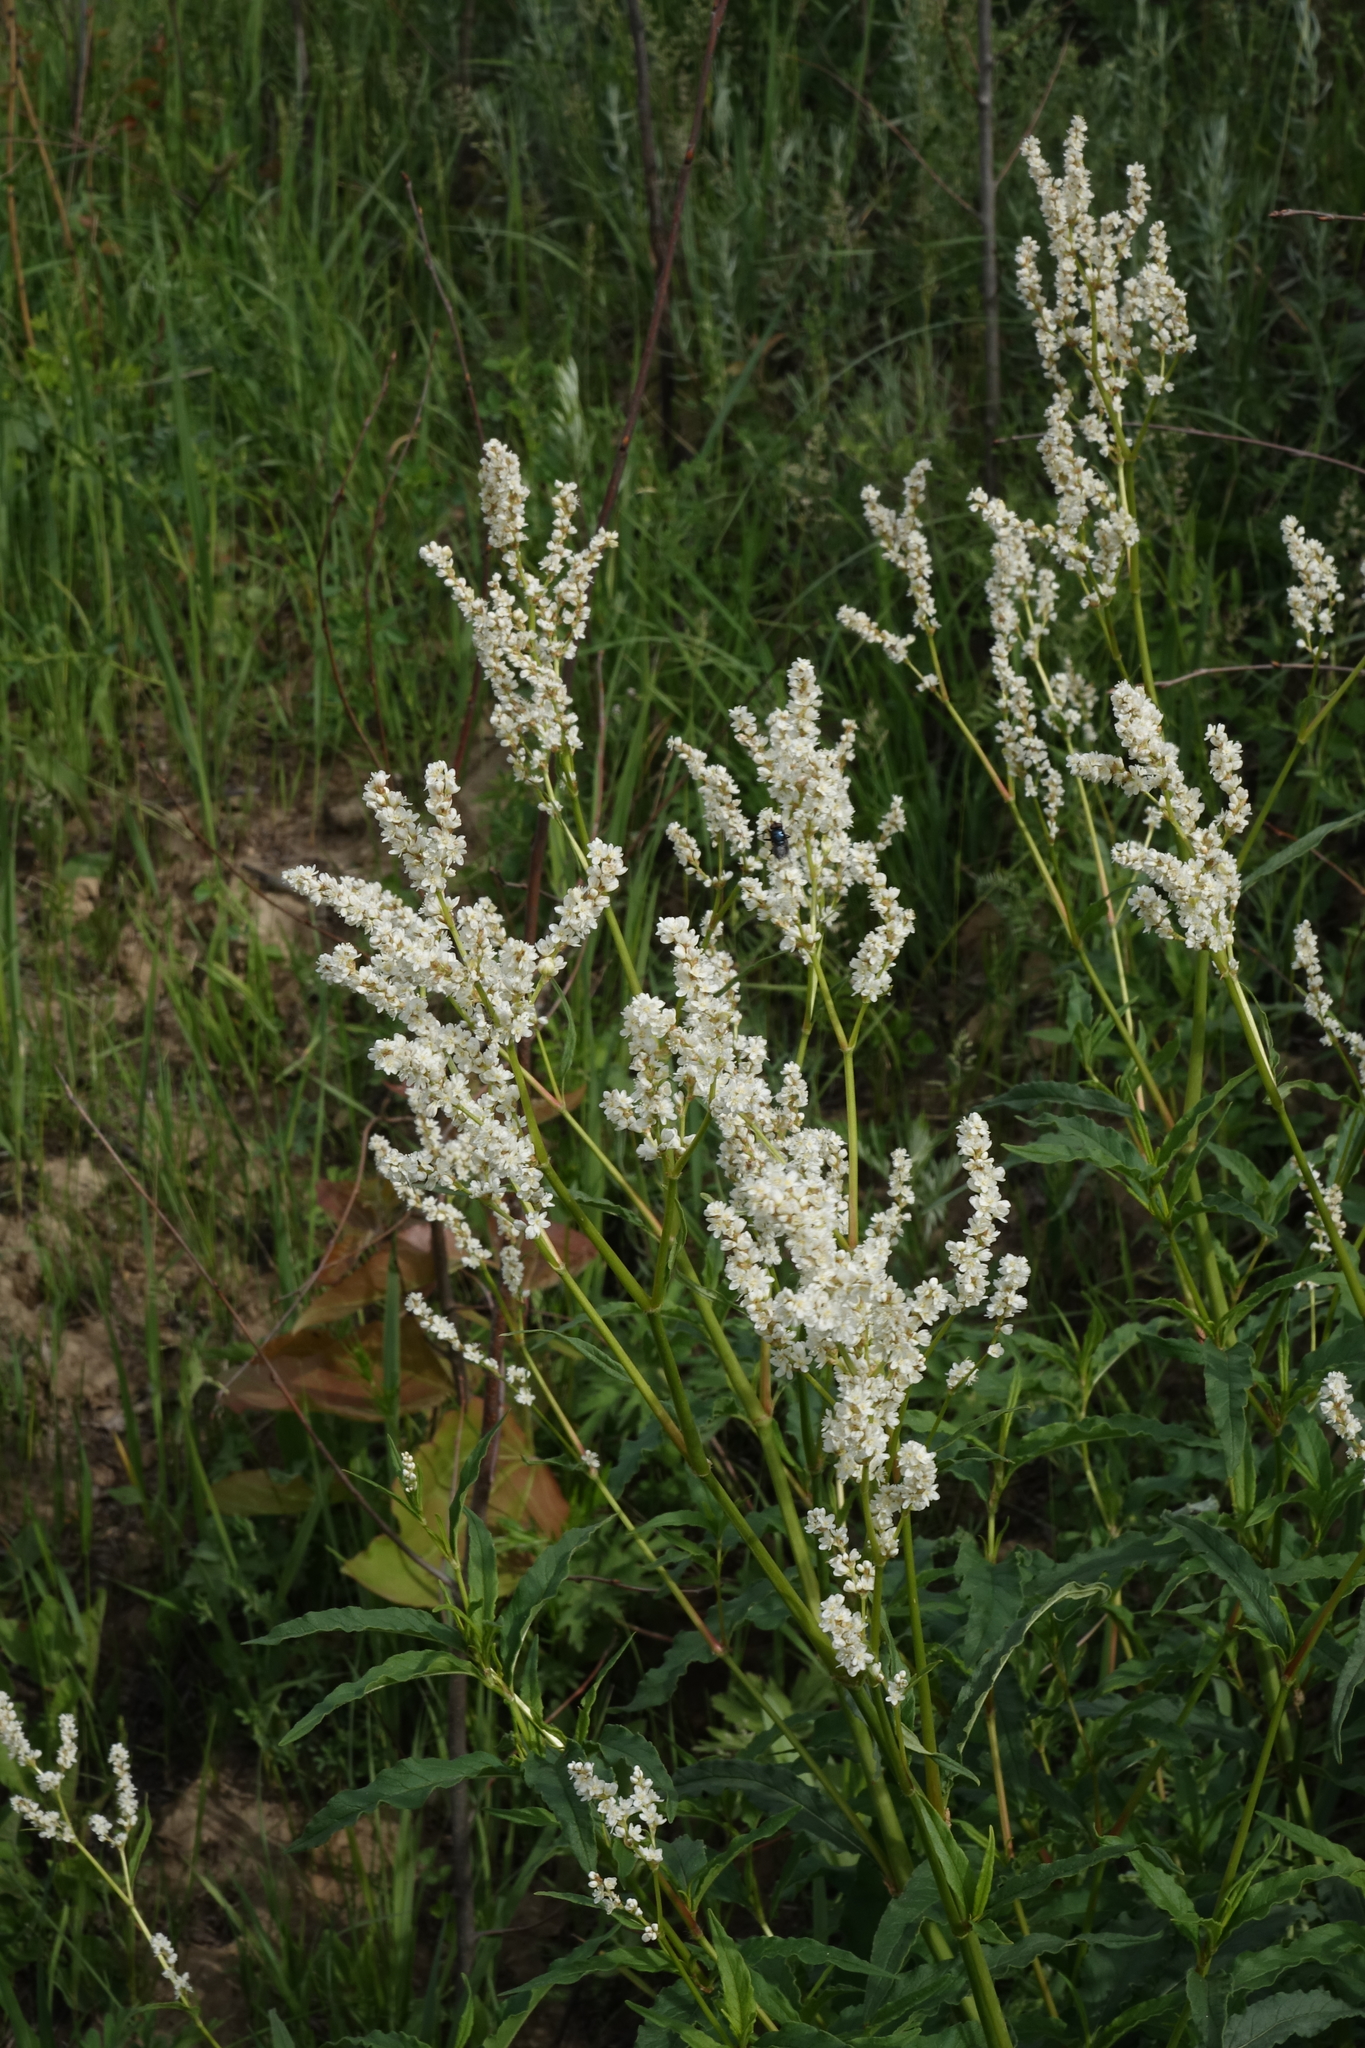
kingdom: Plantae
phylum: Tracheophyta
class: Magnoliopsida
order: Caryophyllales
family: Polygonaceae
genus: Koenigia
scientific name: Koenigia alpina
